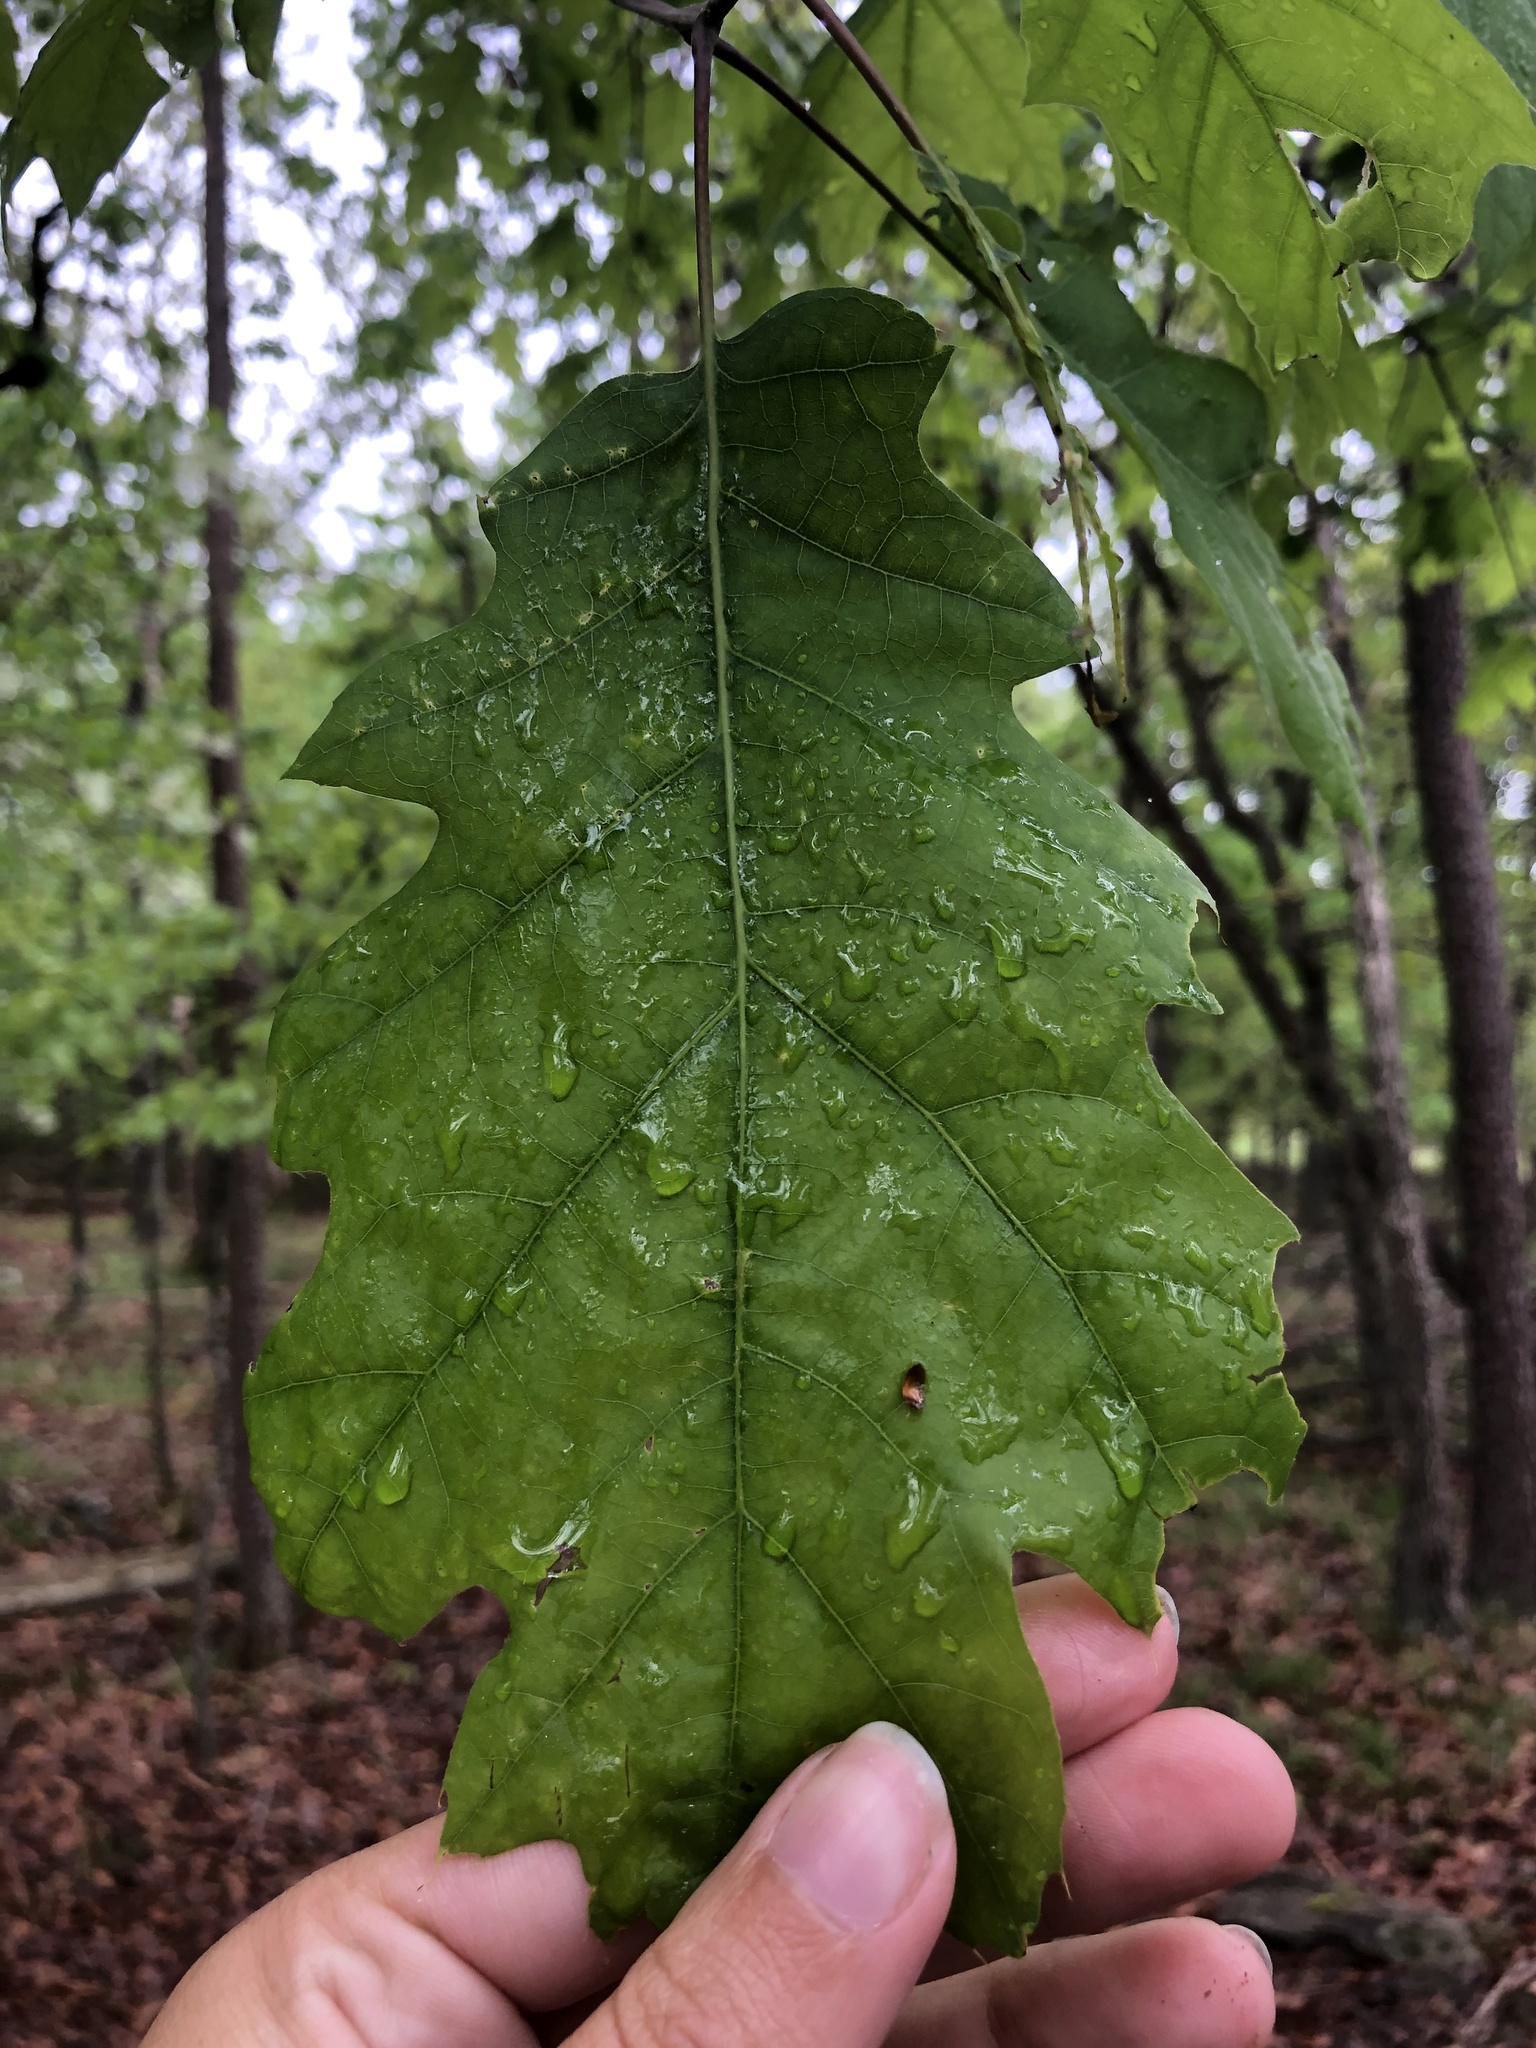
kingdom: Plantae
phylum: Tracheophyta
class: Magnoliopsida
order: Fagales
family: Fagaceae
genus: Quercus
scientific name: Quercus rubra
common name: Red oak
